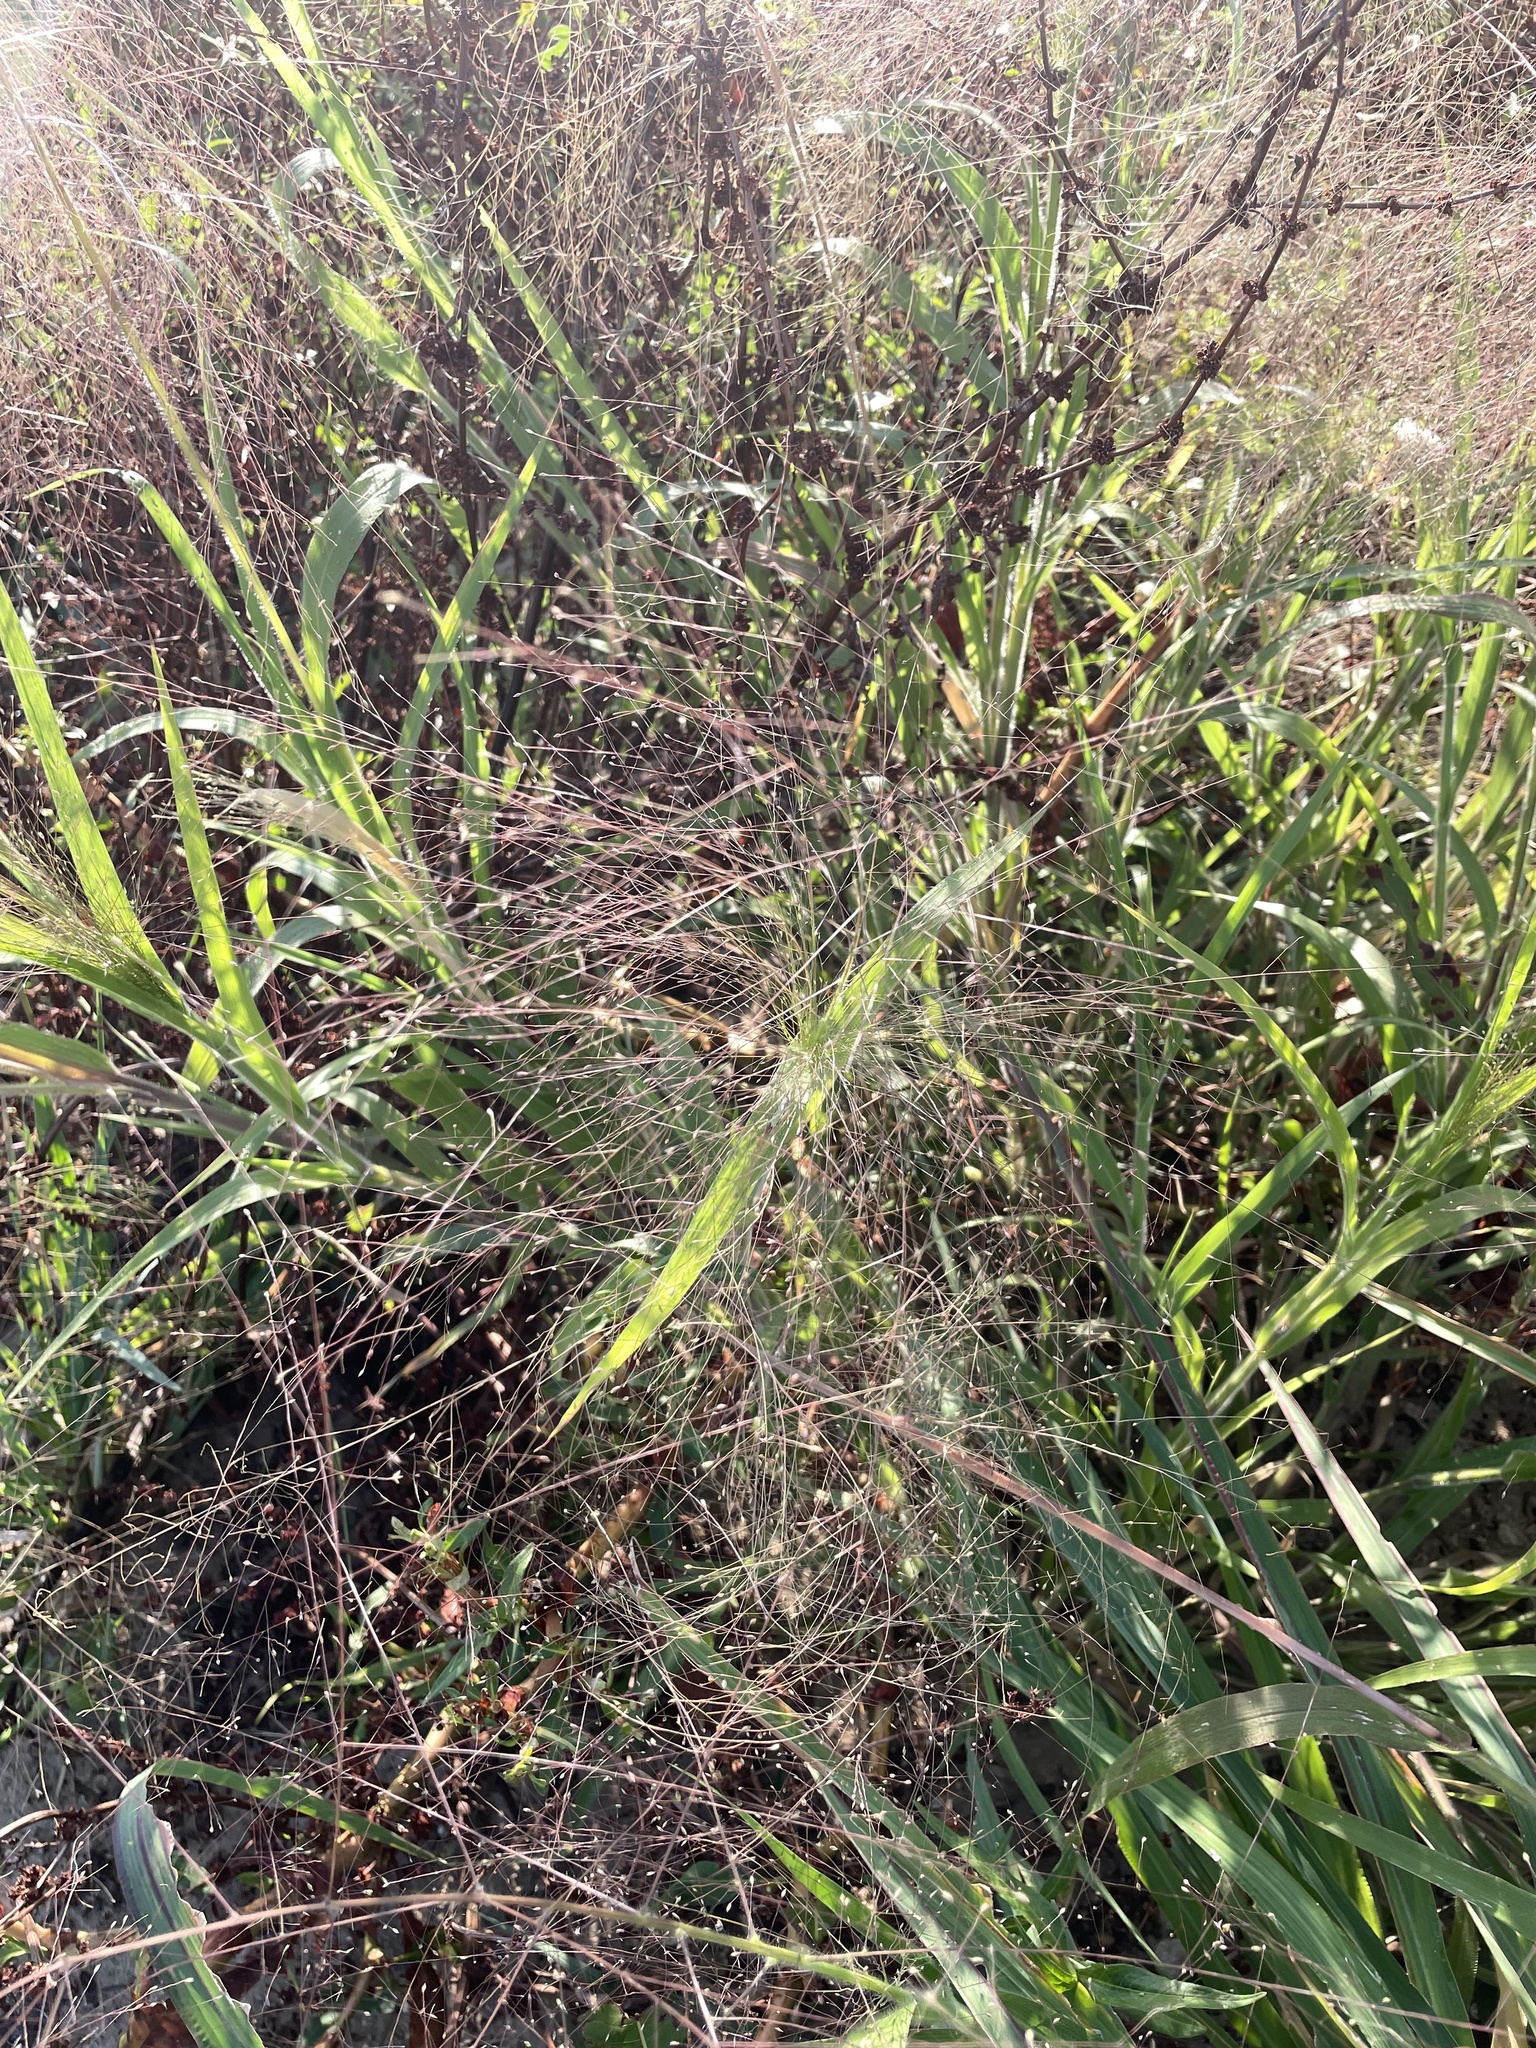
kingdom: Plantae
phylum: Tracheophyta
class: Liliopsida
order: Poales
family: Poaceae
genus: Panicum
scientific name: Panicum capillare
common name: Witch-grass
